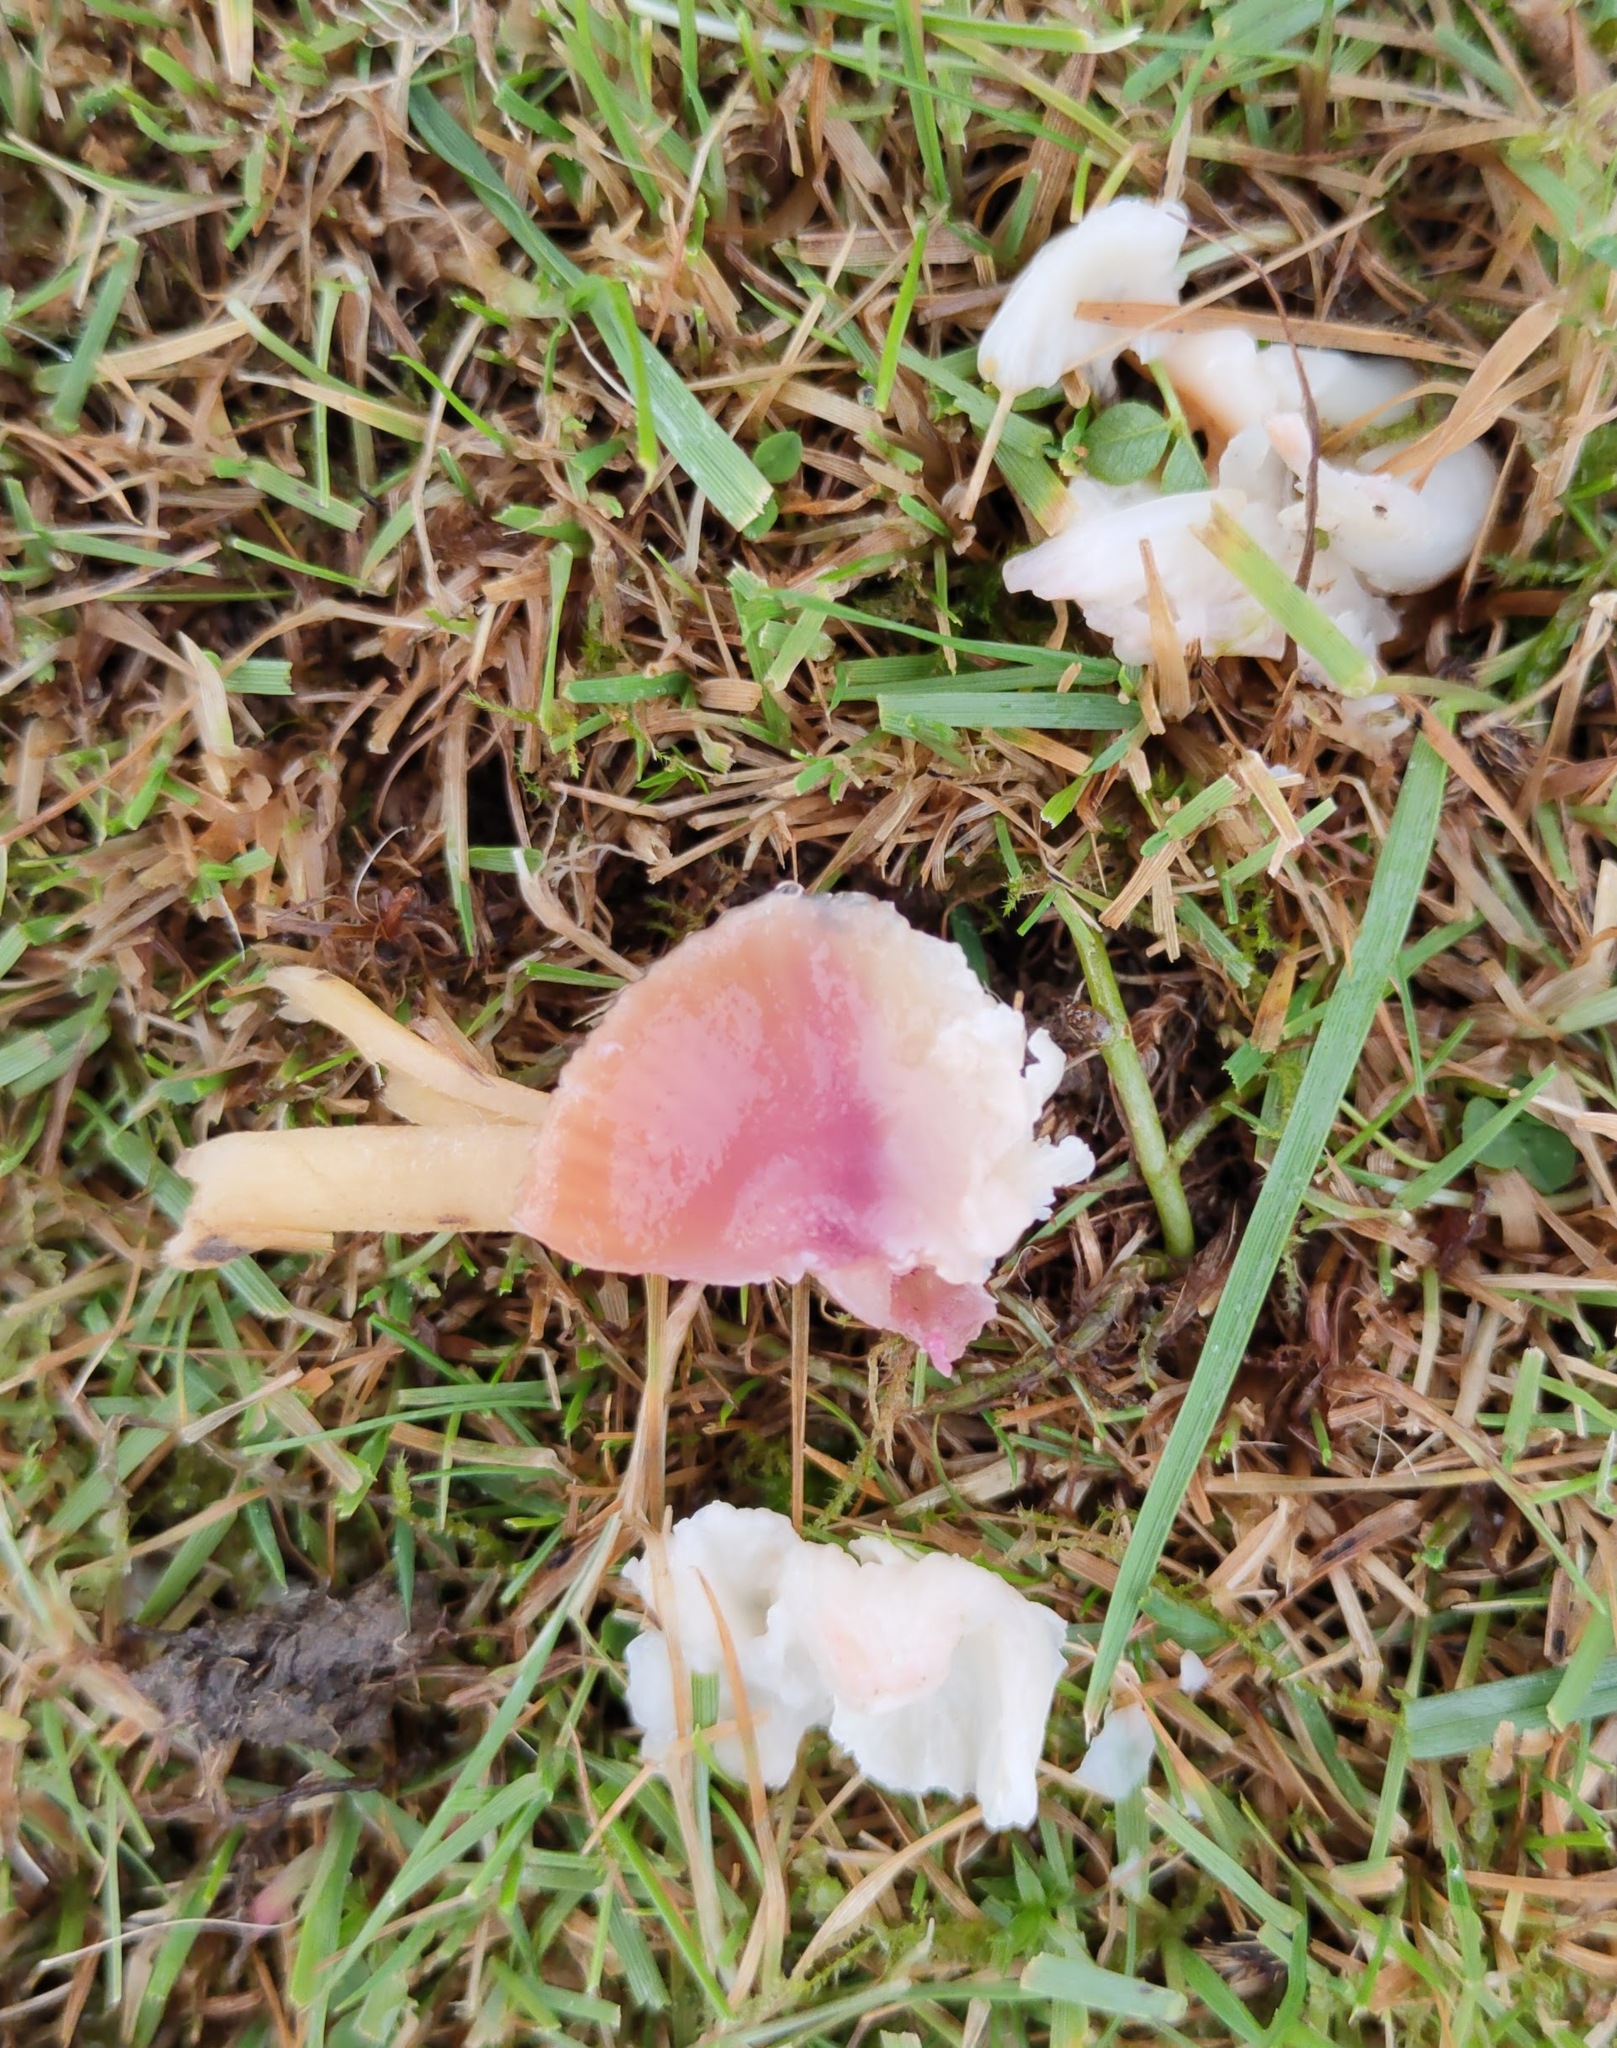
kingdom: Fungi
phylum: Basidiomycota
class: Agaricomycetes
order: Agaricales
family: Hygrophoraceae
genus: Gliophorus
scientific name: Gliophorus reginae
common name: Jubilee waxcap
